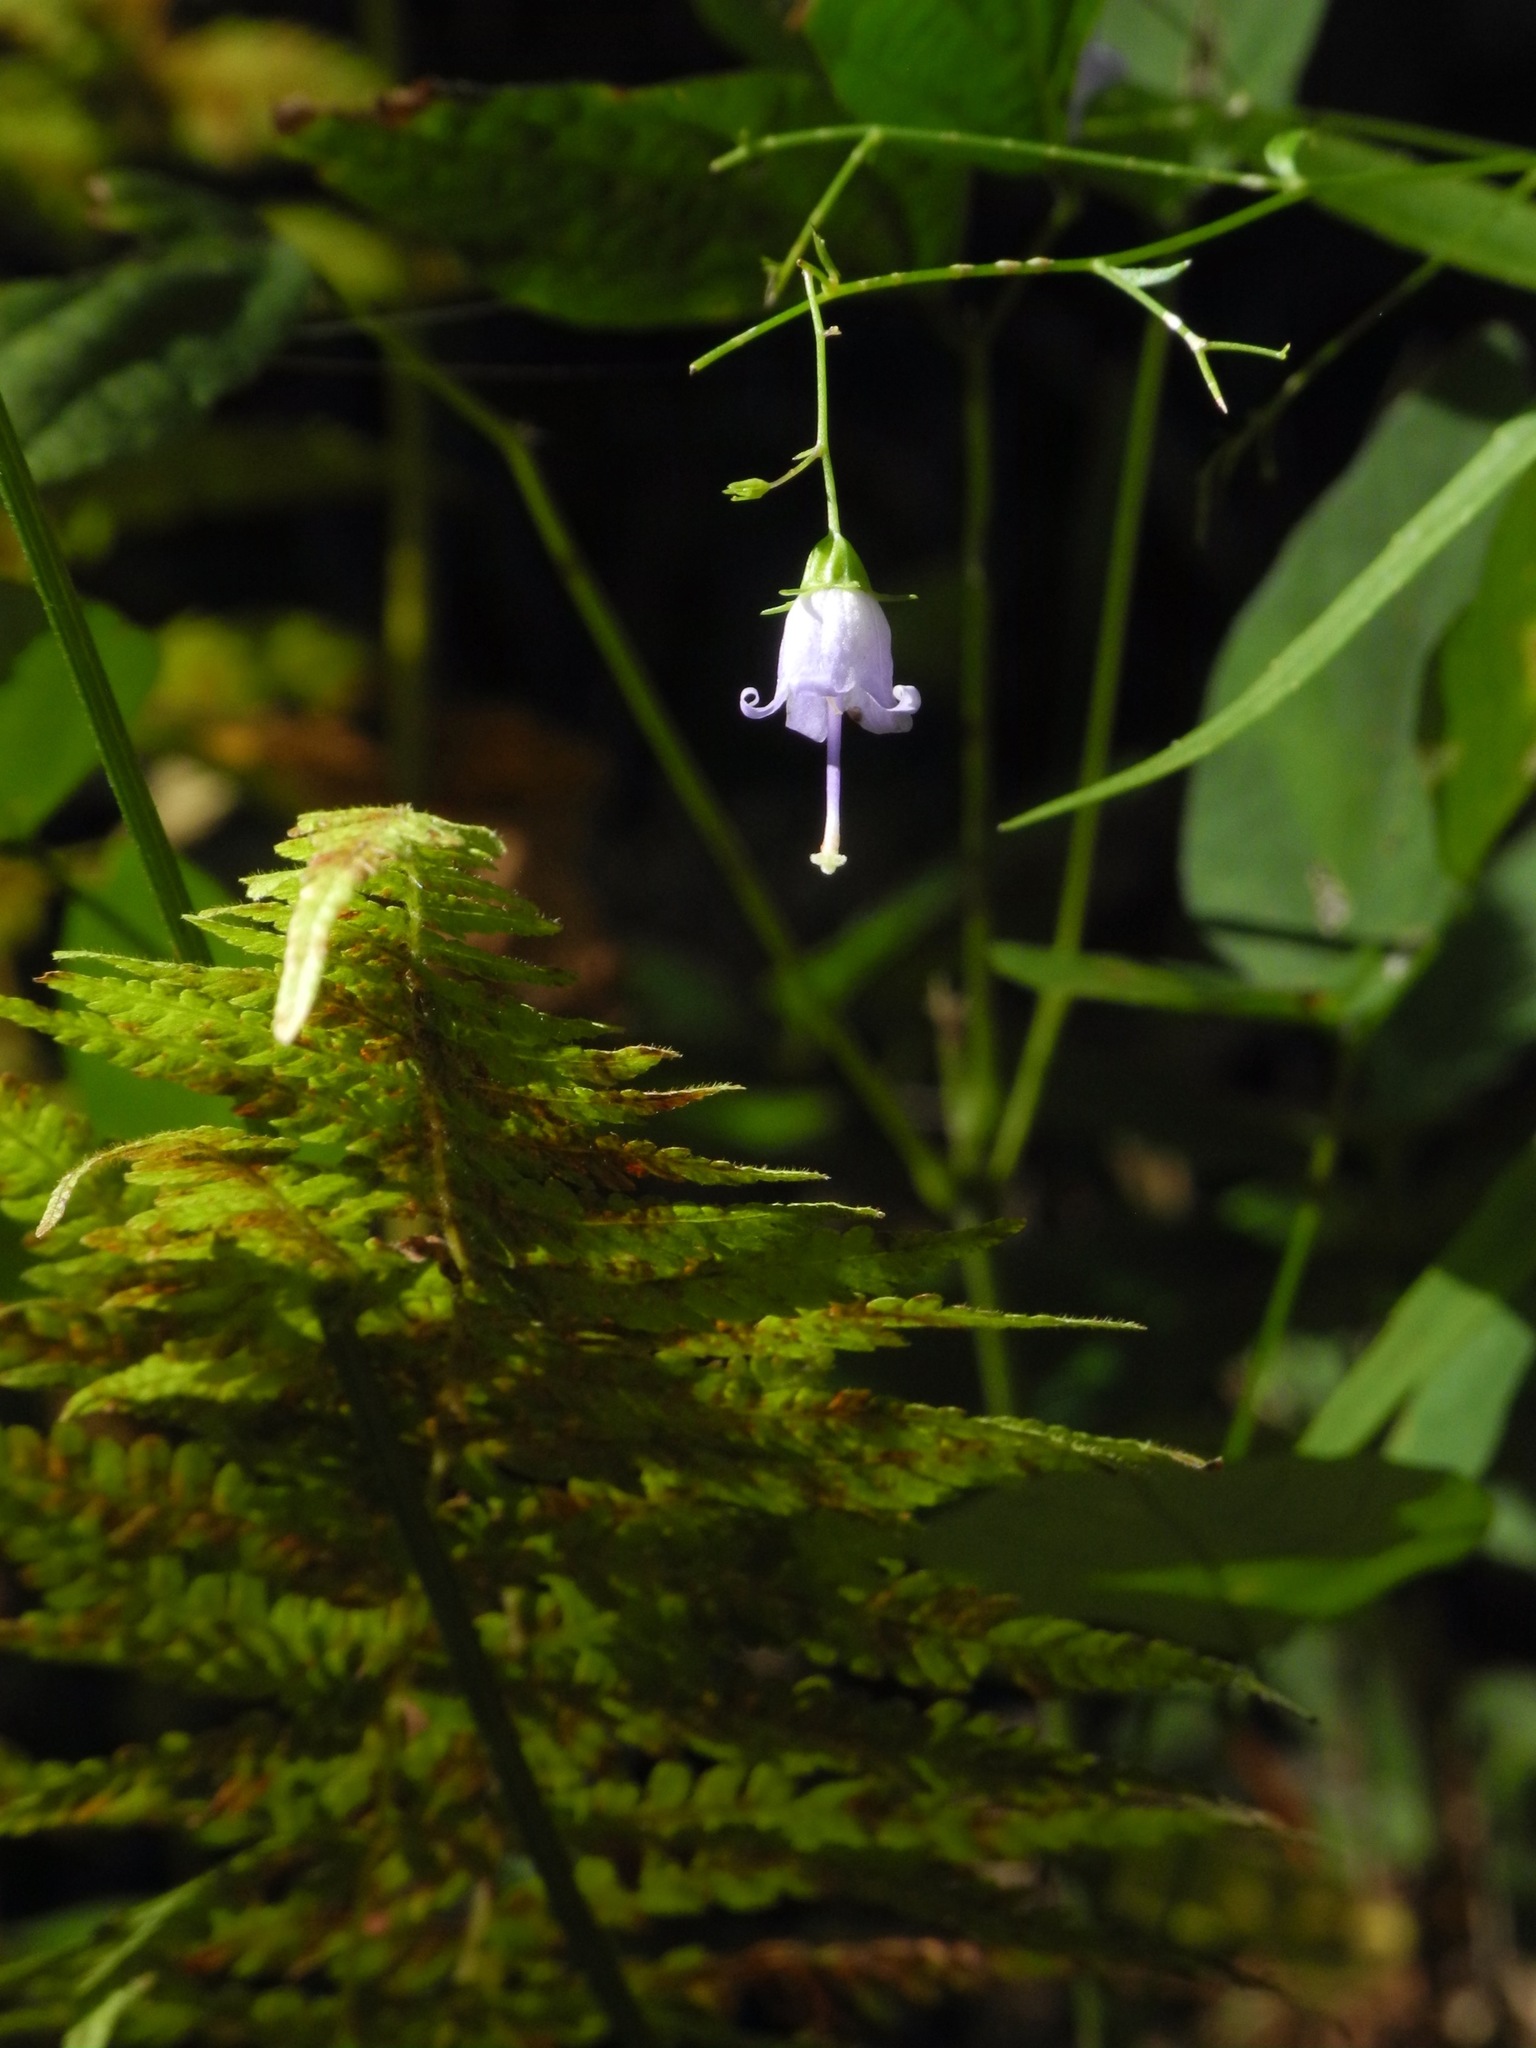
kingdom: Plantae
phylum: Tracheophyta
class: Magnoliopsida
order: Asterales
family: Campanulaceae
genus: Campanula
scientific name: Campanula divaricata
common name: Appalachian bellflower
